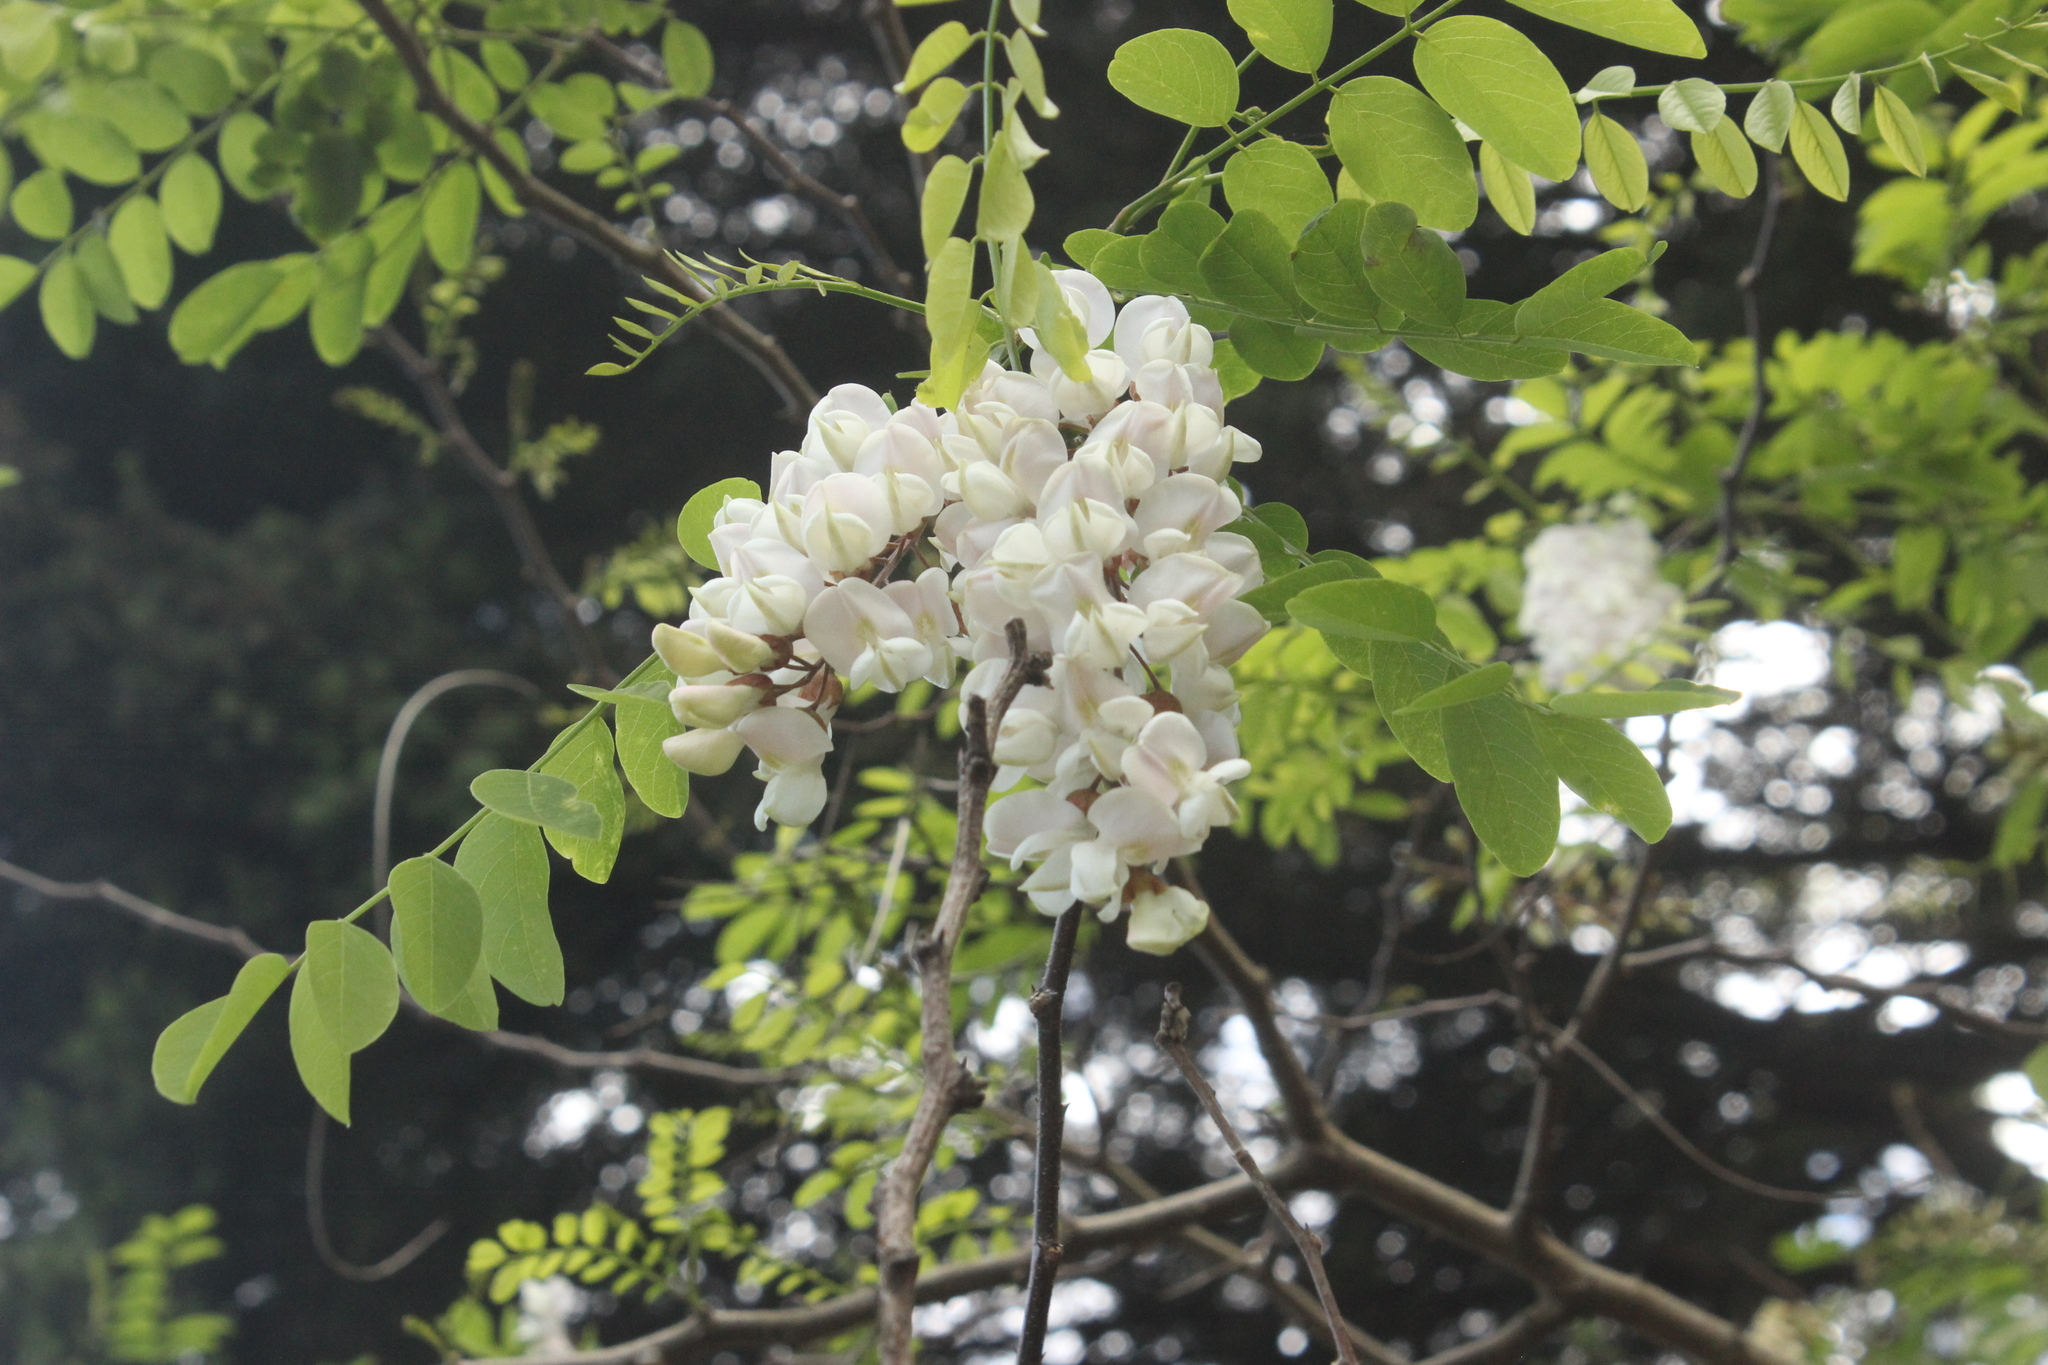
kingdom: Plantae
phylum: Tracheophyta
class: Magnoliopsida
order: Fabales
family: Fabaceae
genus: Robinia
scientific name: Robinia pseudoacacia
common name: Black locust
